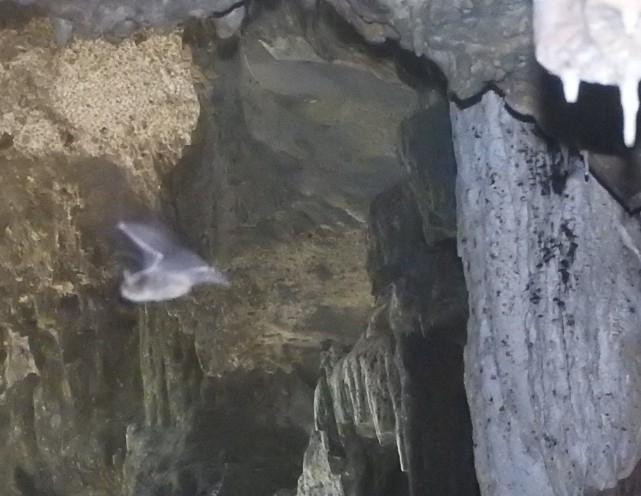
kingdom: Animalia
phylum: Chordata
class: Mammalia
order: Chiroptera
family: Vespertilionidae
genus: Myotis
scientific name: Myotis pilosatibialis
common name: Northern hairy-legged myotis
